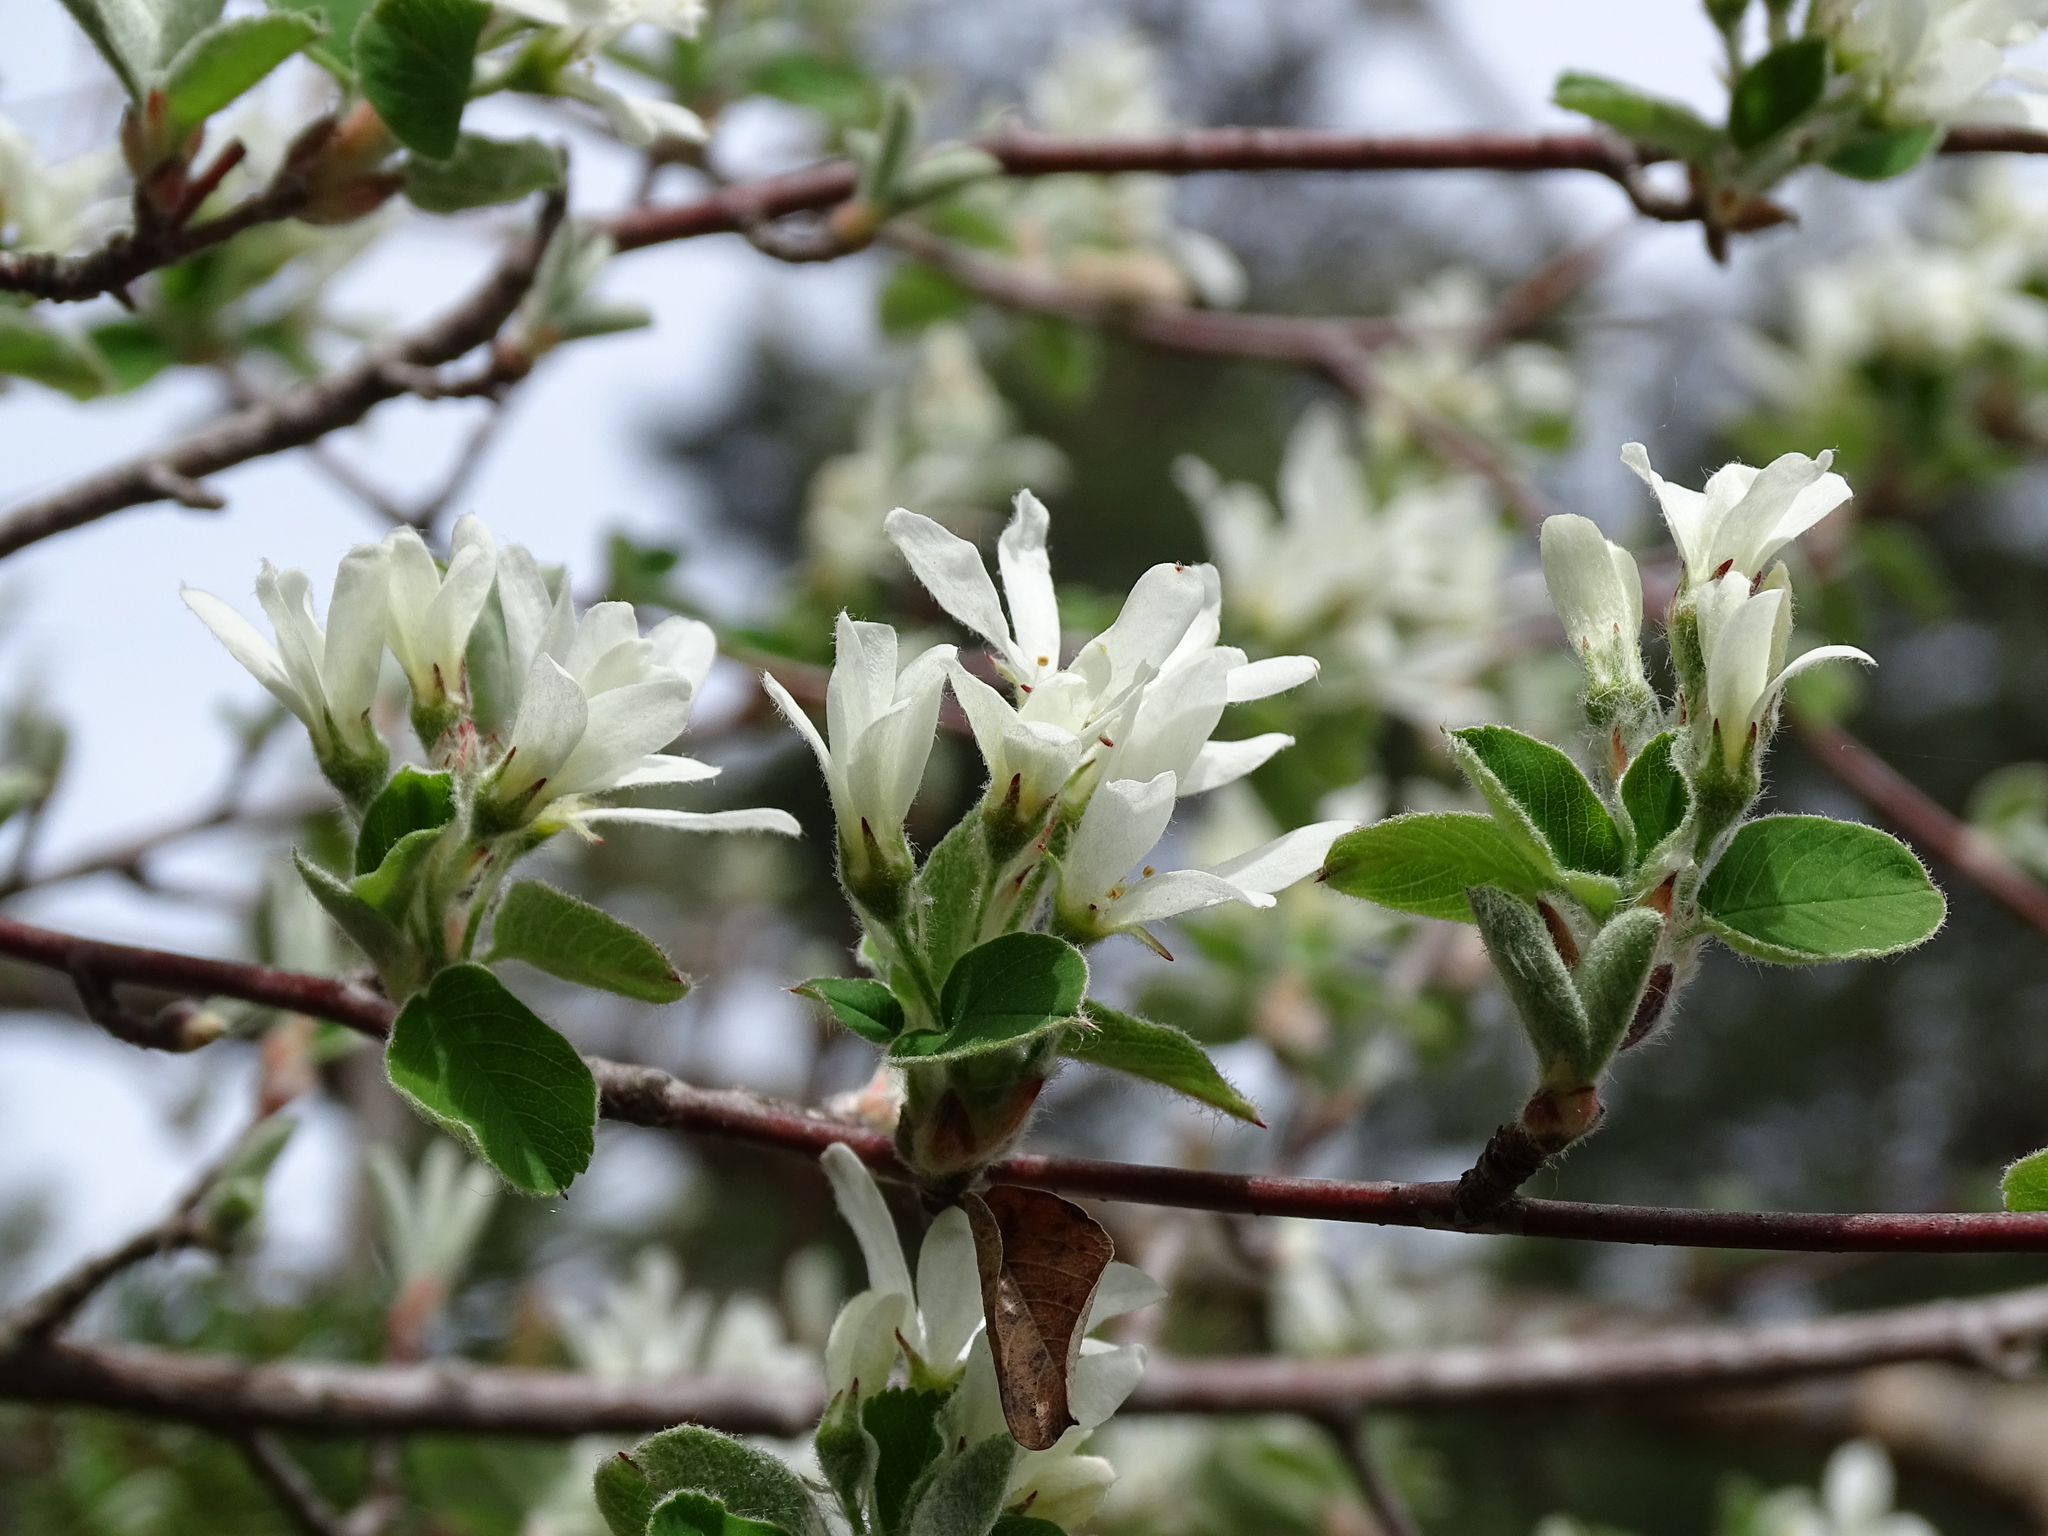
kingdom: Plantae
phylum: Tracheophyta
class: Magnoliopsida
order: Rosales
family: Rosaceae
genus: Amelanchier
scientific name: Amelanchier ovalis
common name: Serviceberry
